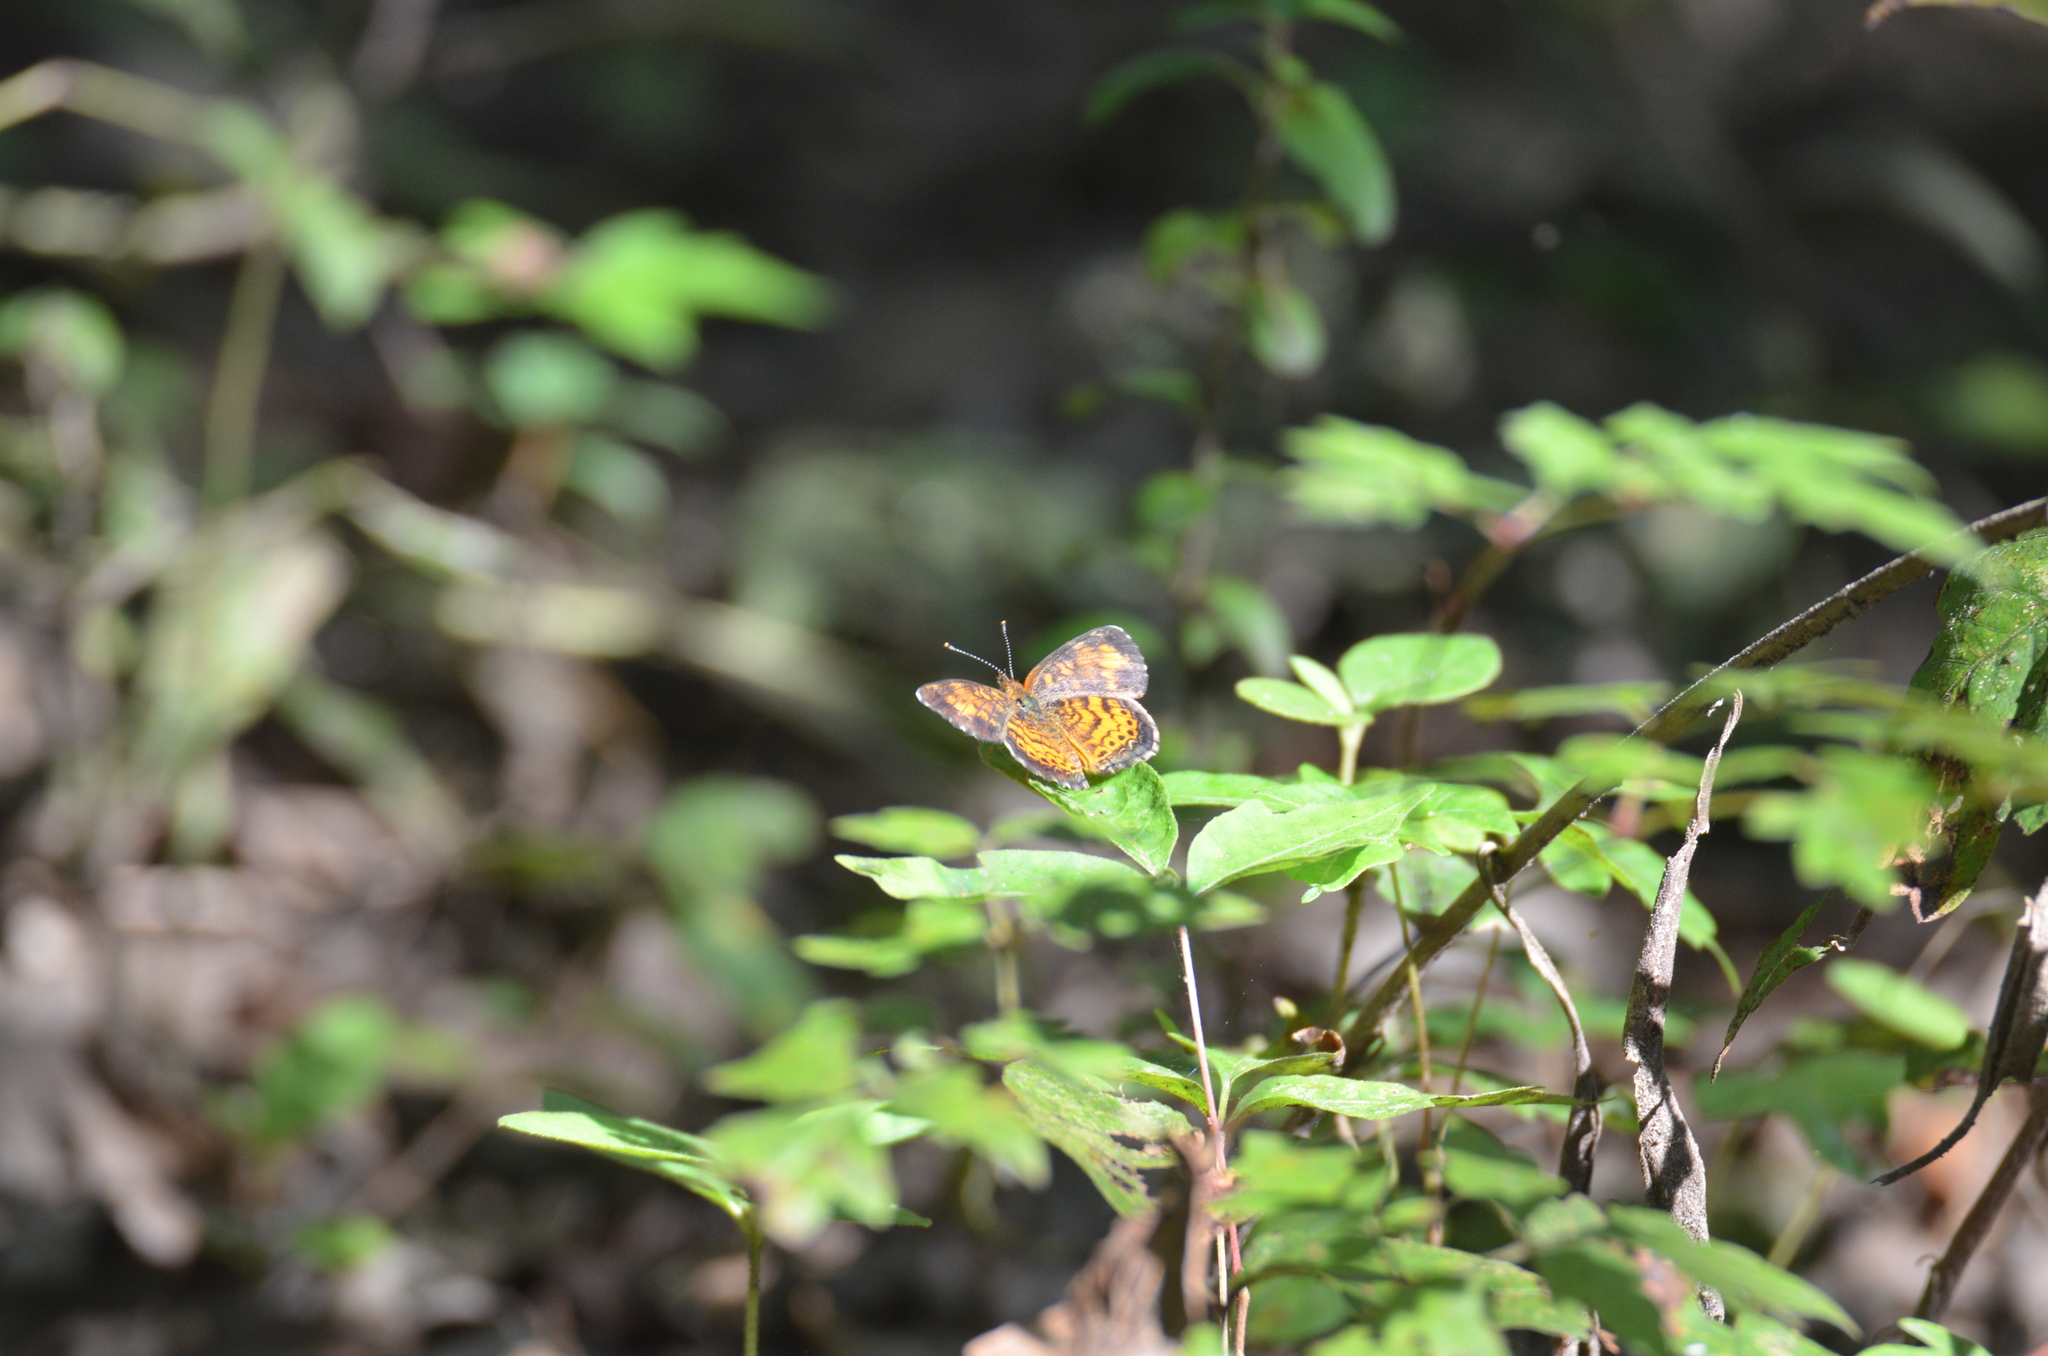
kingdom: Animalia
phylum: Arthropoda
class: Insecta
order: Lepidoptera
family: Nymphalidae
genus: Phyciodes
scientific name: Phyciodes tharos
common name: Pearl crescent
